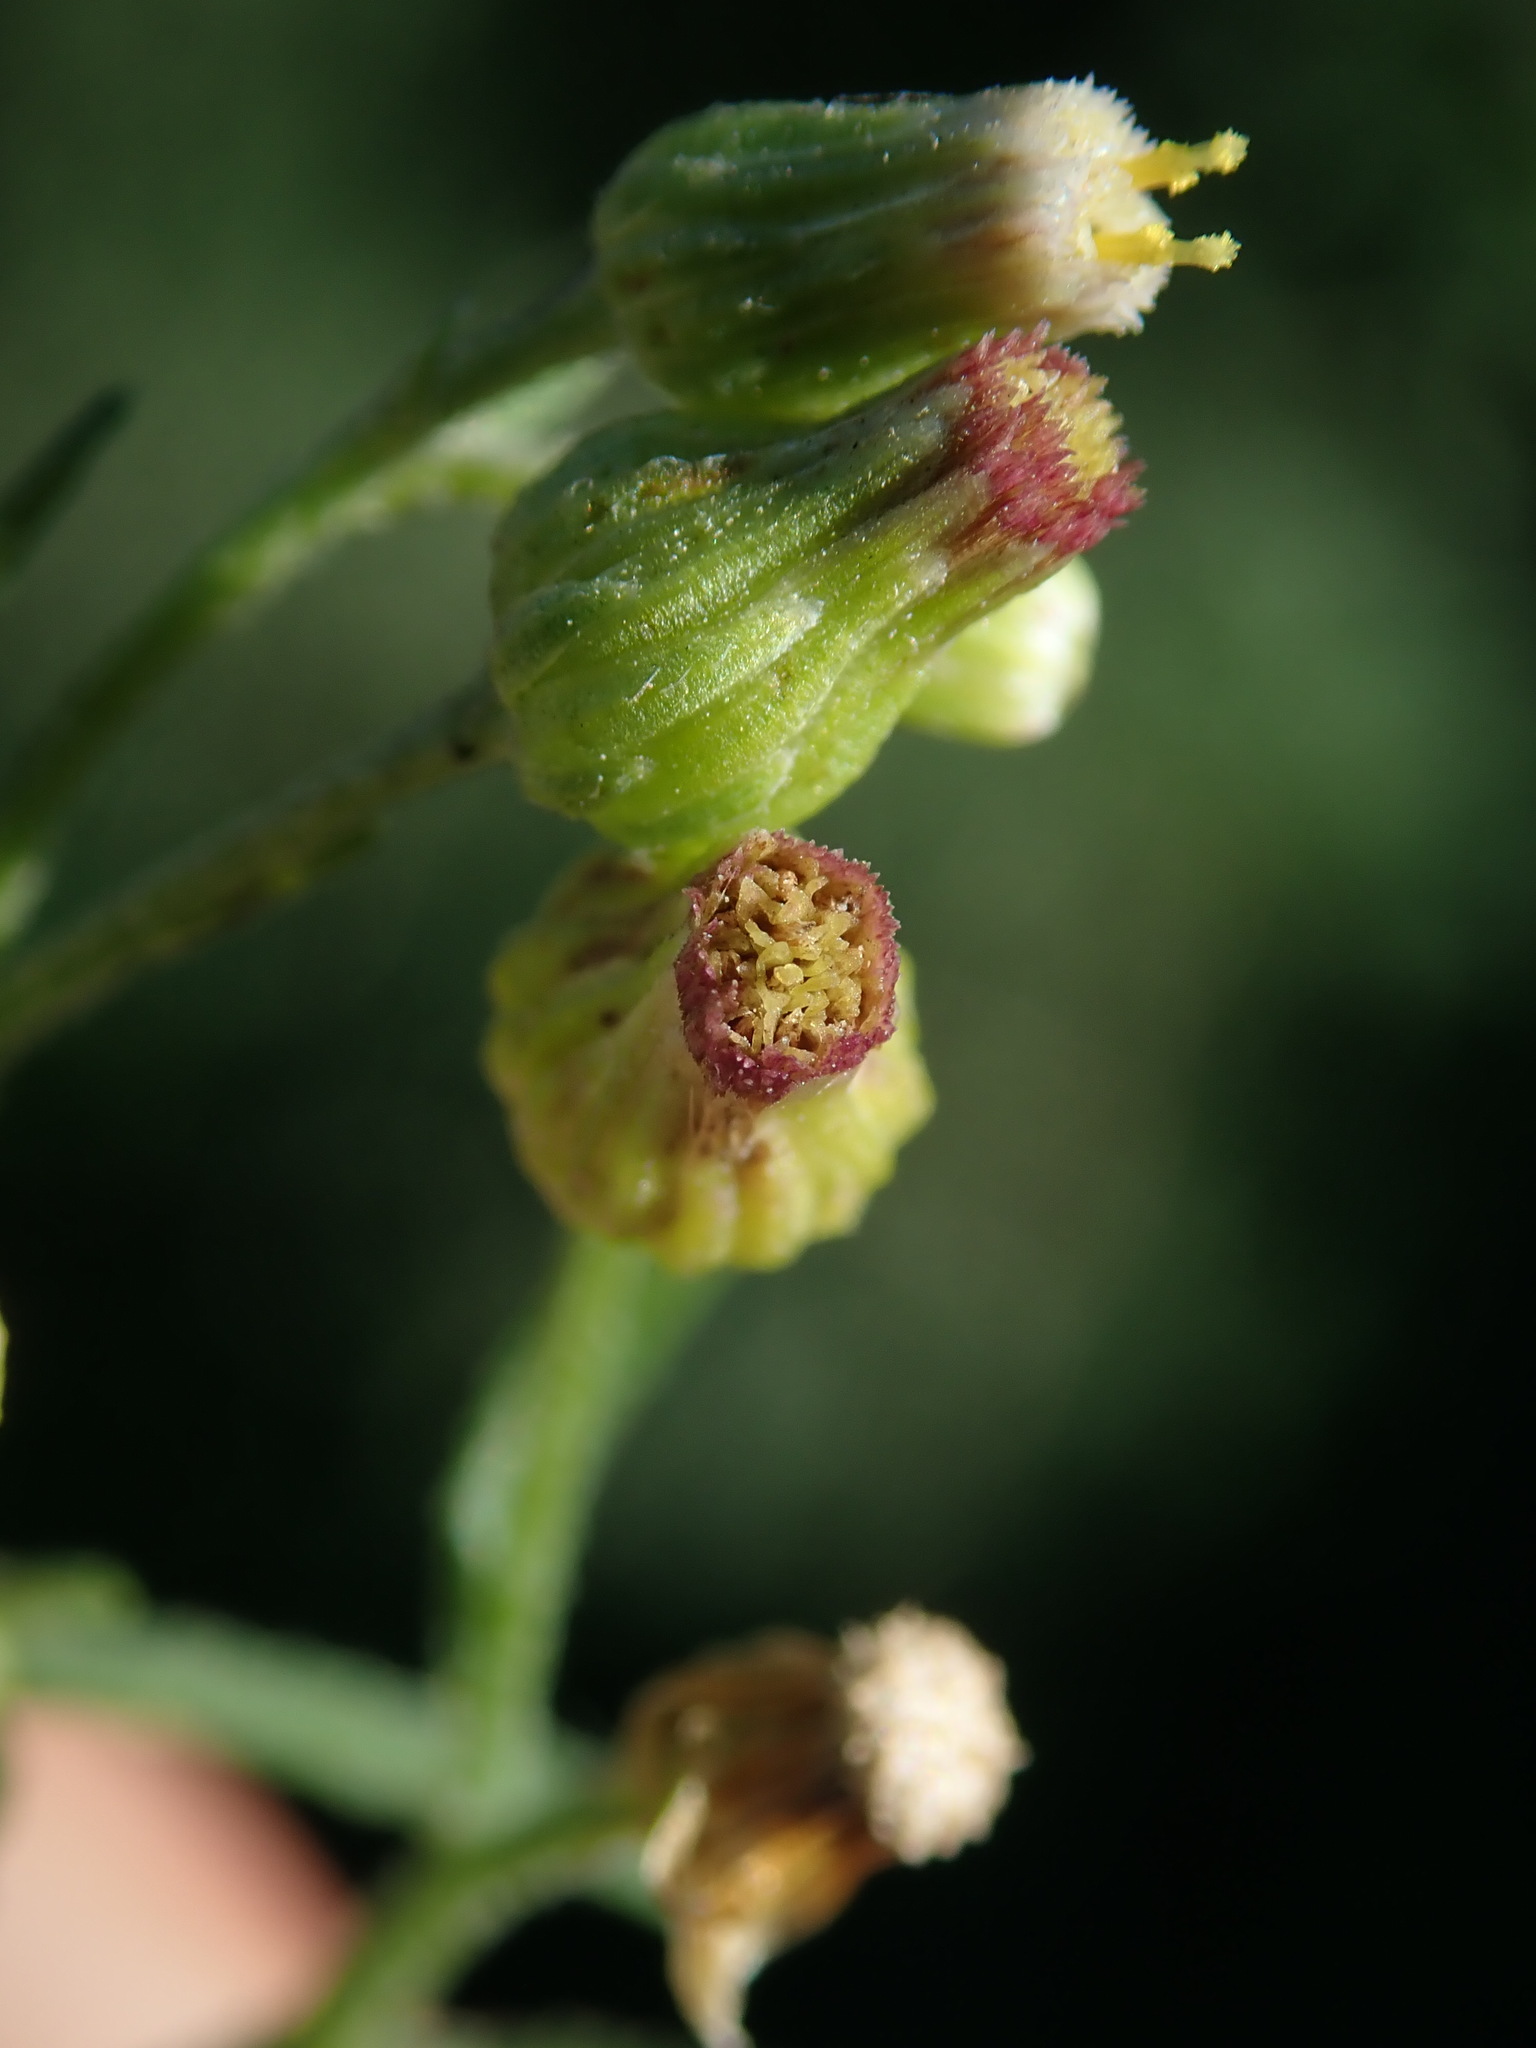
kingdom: Plantae
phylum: Tracheophyta
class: Magnoliopsida
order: Asterales
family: Asteraceae
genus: Erigeron
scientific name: Erigeron floribundus
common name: Bilbao fleabane
